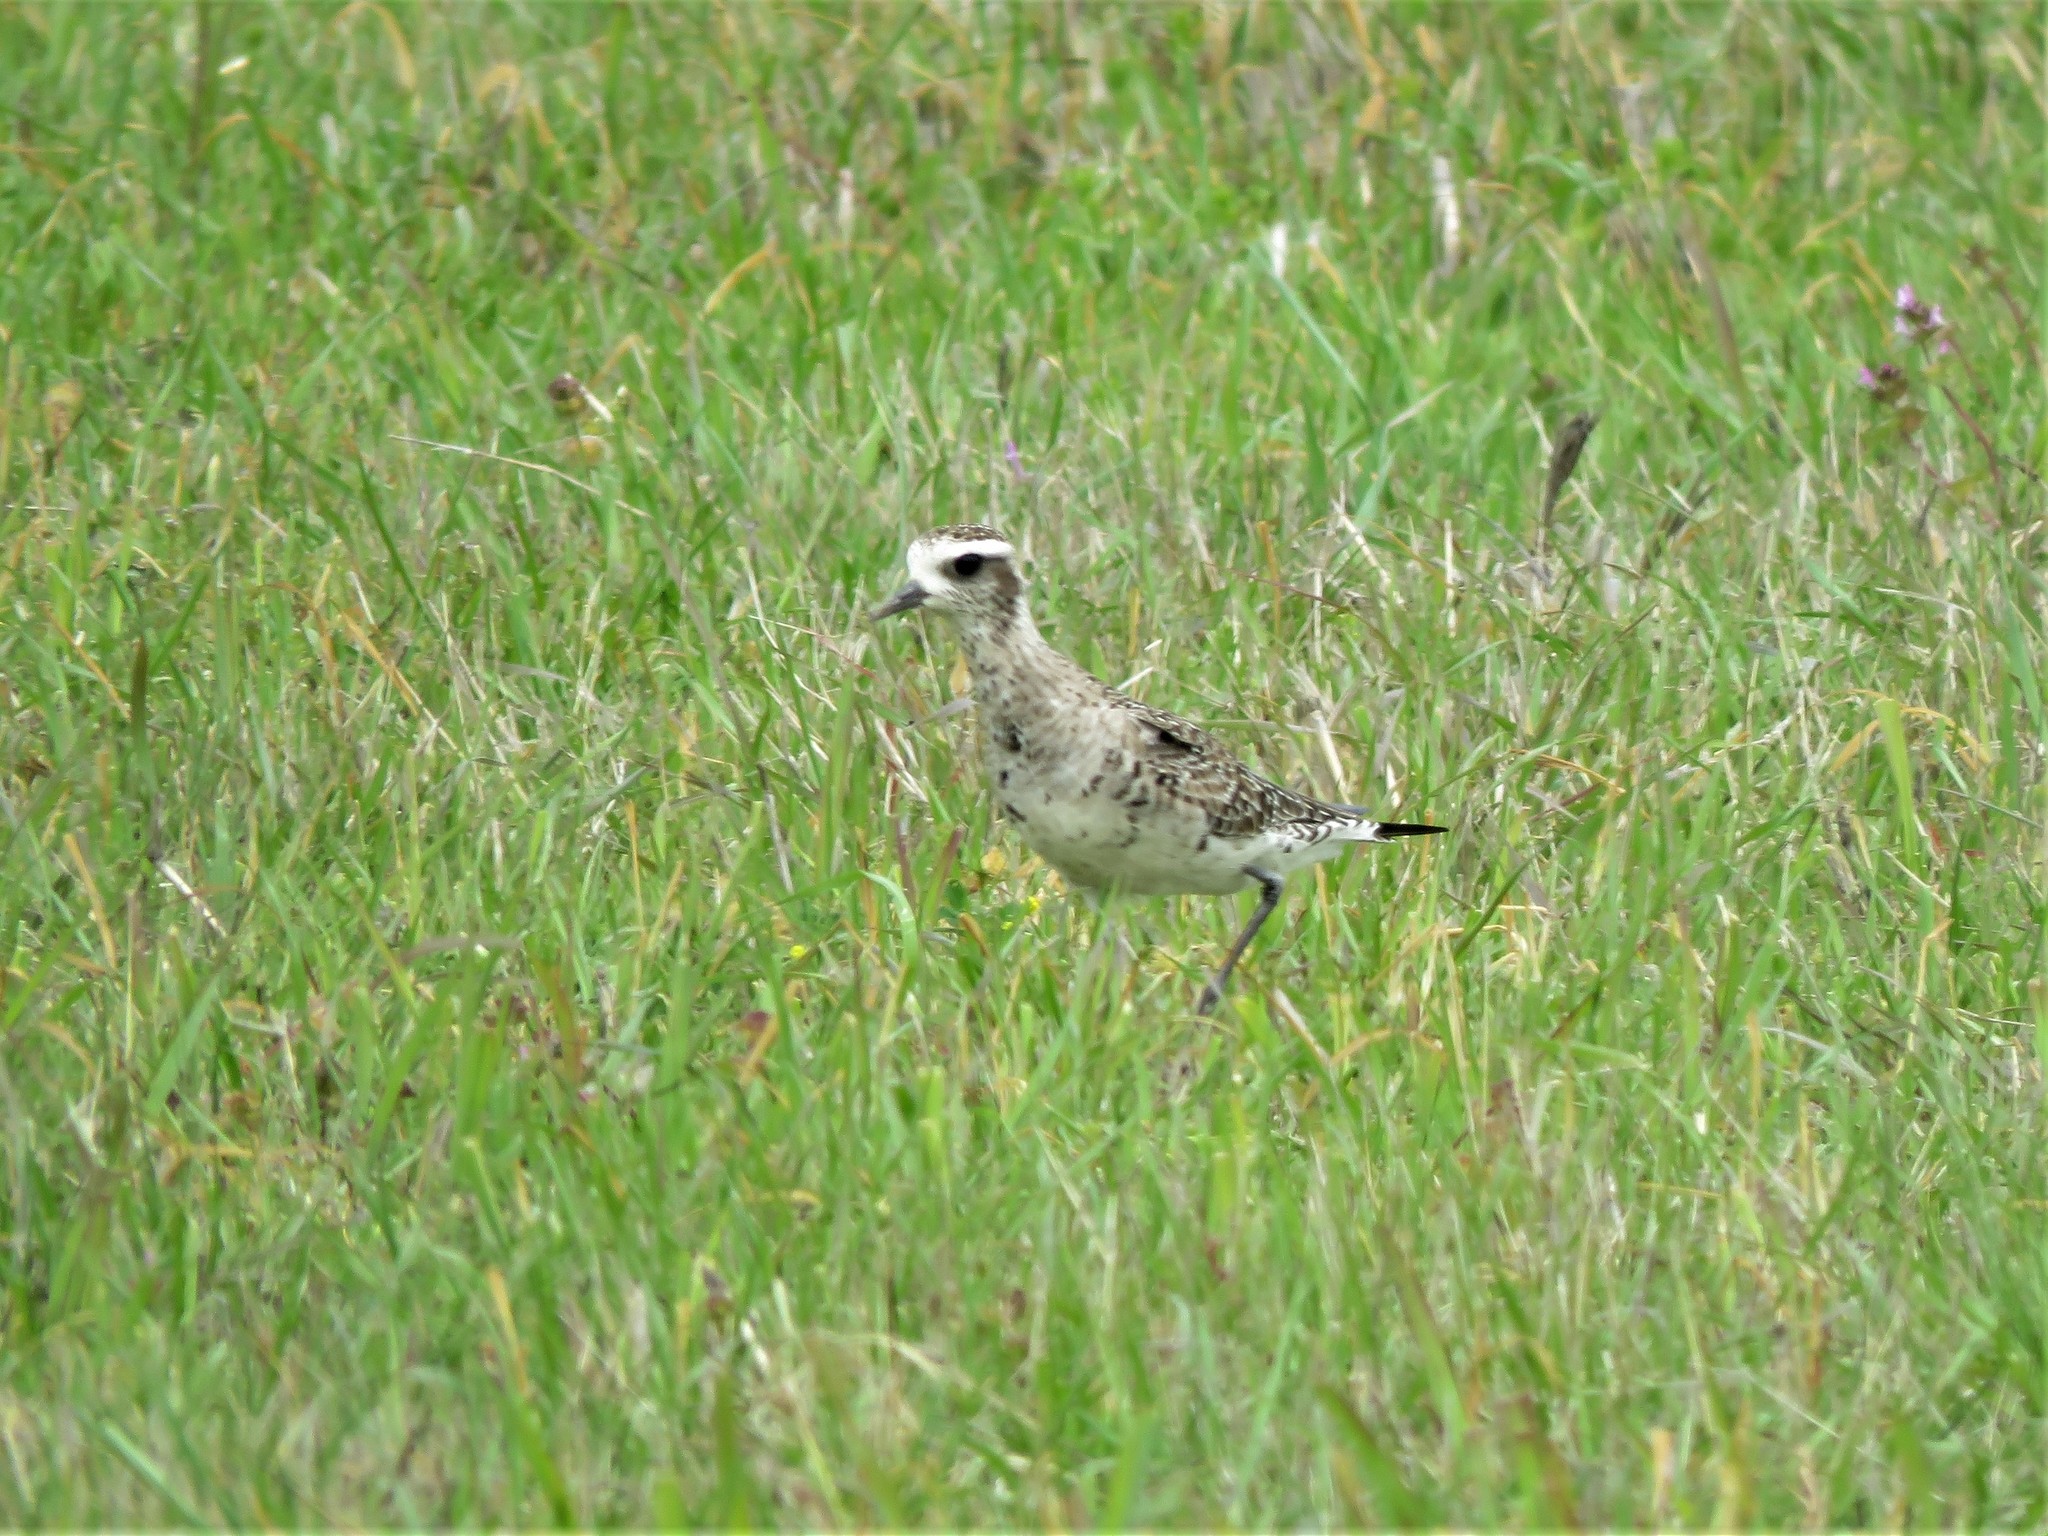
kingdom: Animalia
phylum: Chordata
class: Aves
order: Charadriiformes
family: Charadriidae
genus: Pluvialis
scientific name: Pluvialis dominica
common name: American golden plover
